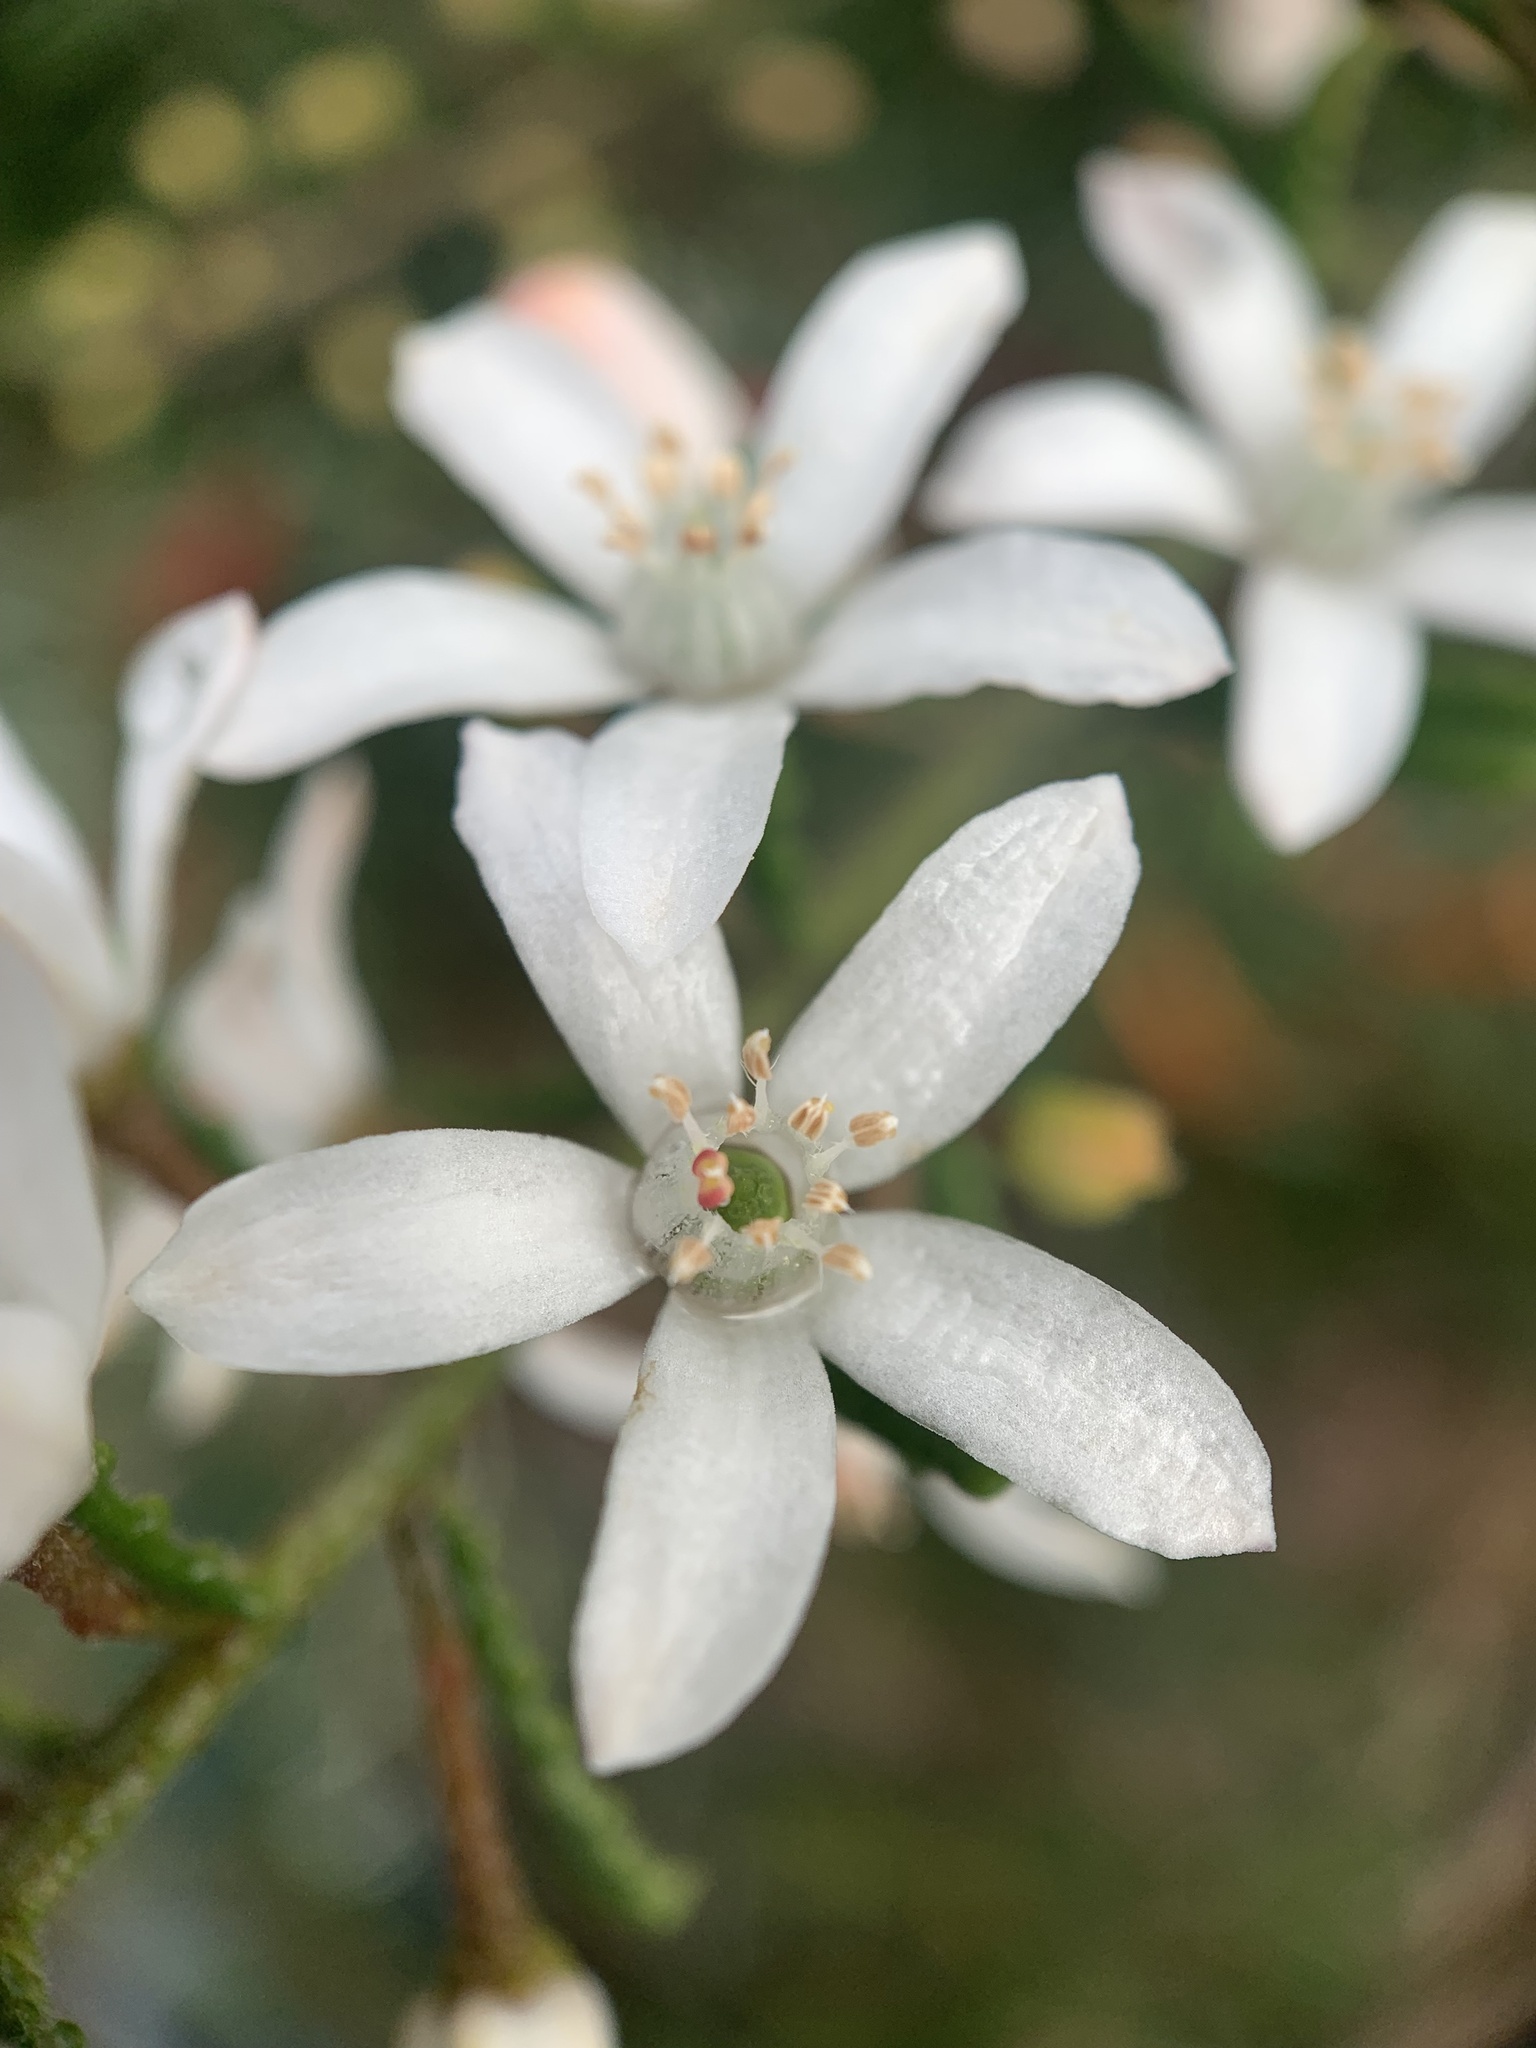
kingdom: Plantae
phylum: Tracheophyta
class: Magnoliopsida
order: Sapindales
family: Rutaceae
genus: Philotheca
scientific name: Philotheca hispidula
